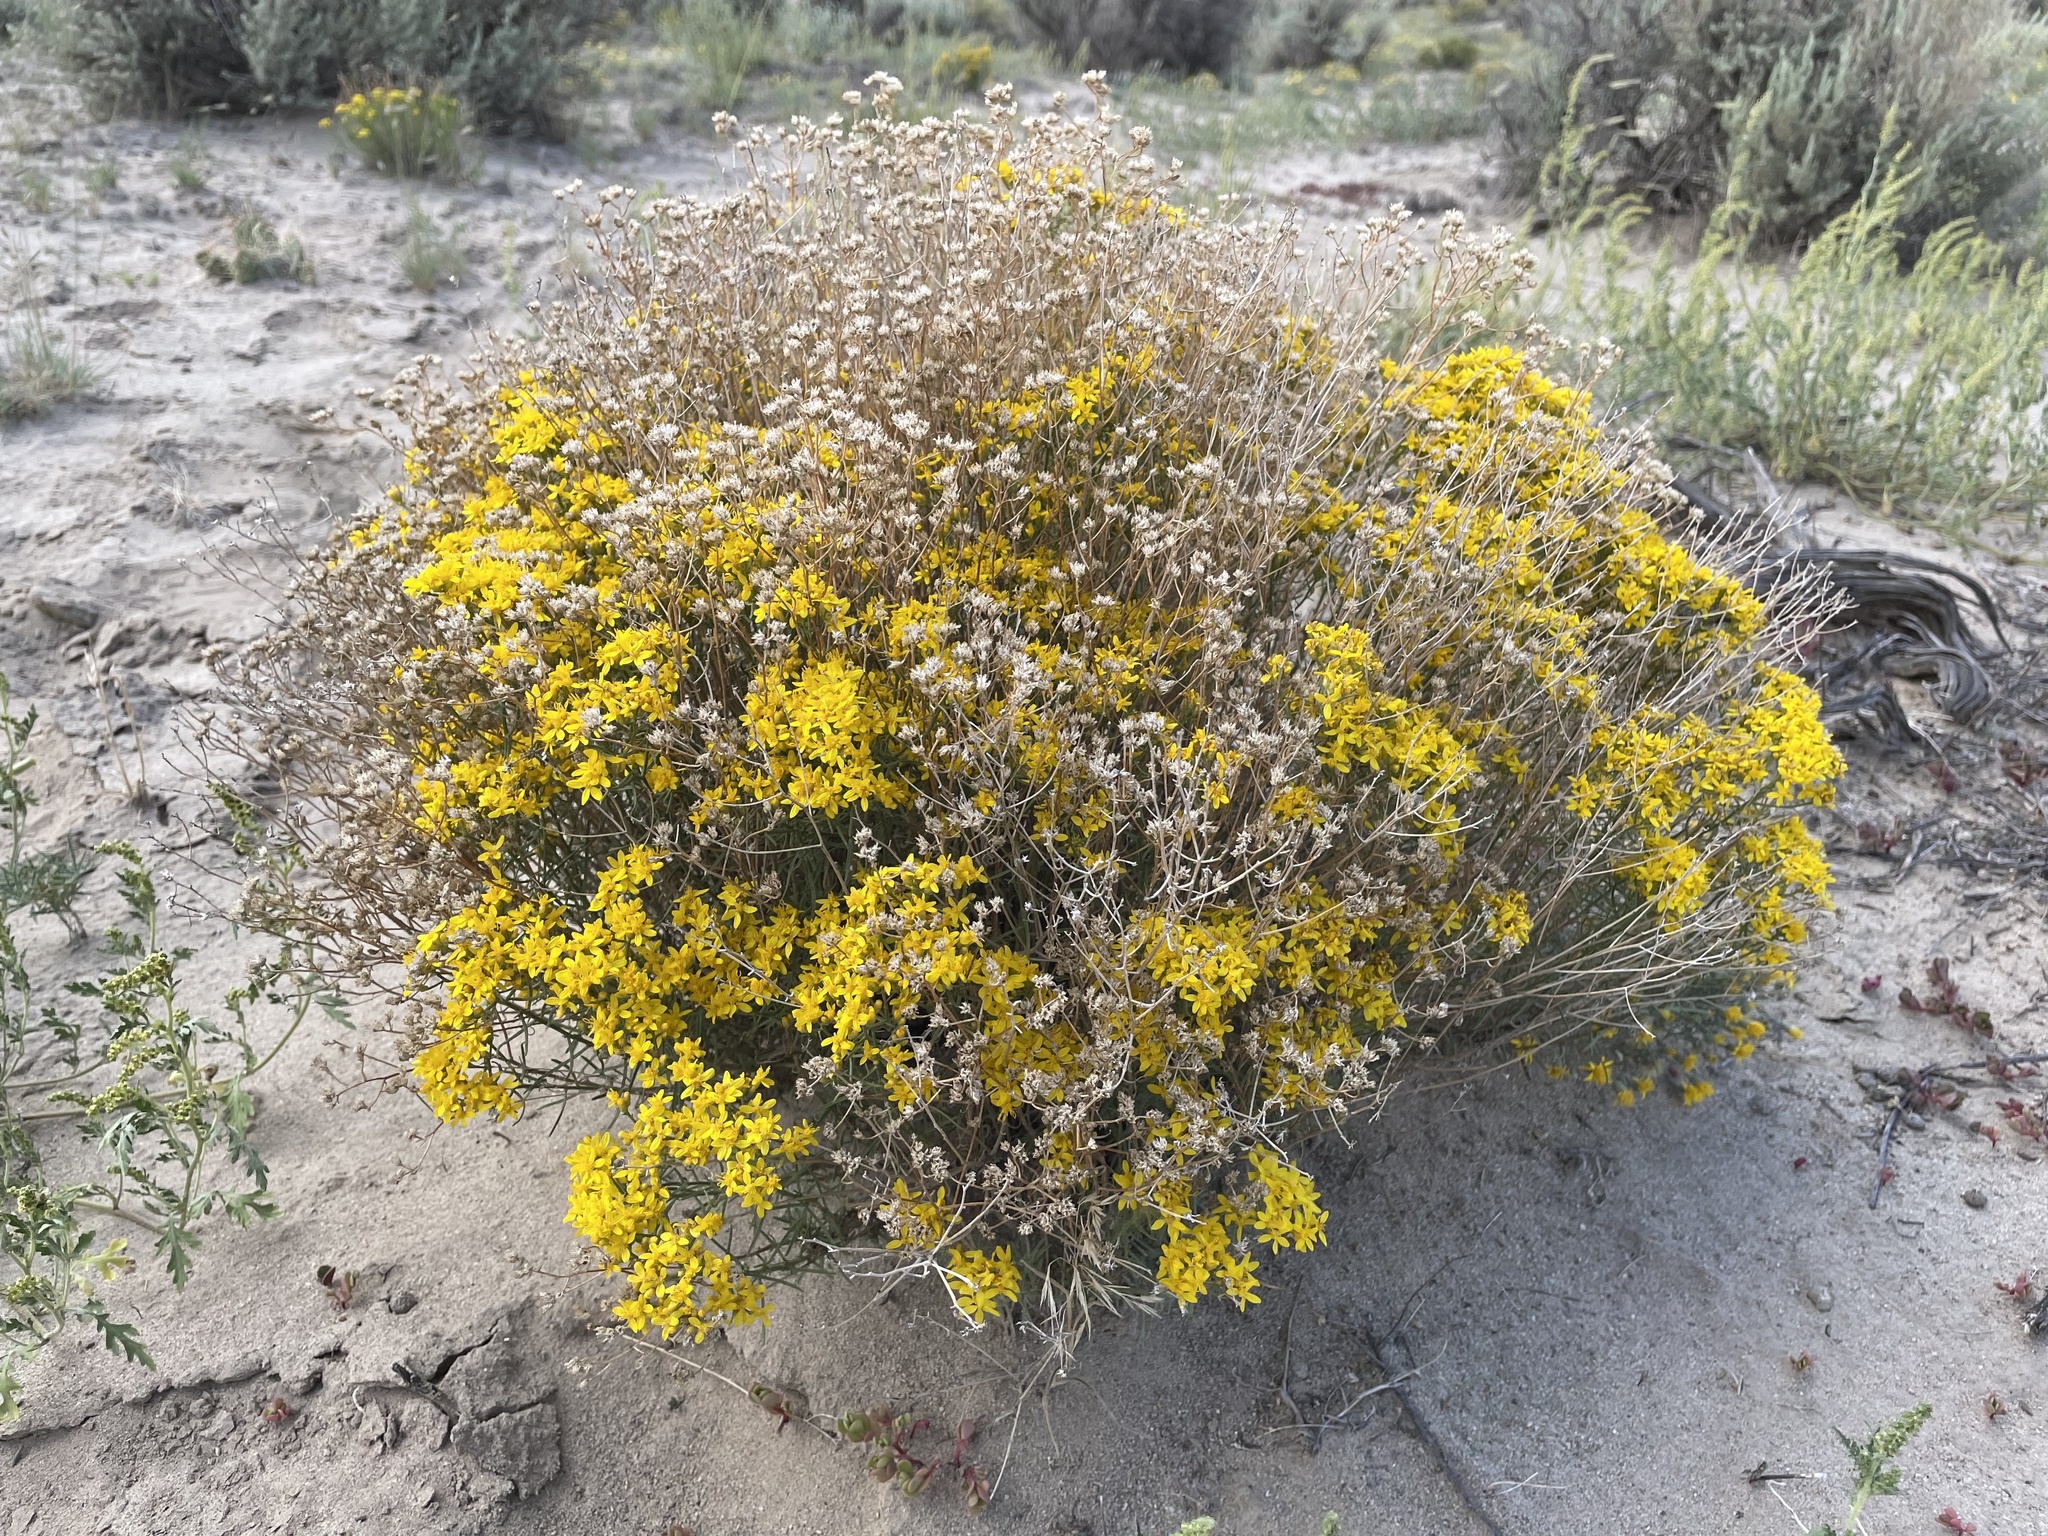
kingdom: Plantae
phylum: Tracheophyta
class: Magnoliopsida
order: Asterales
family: Asteraceae
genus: Gutierrezia
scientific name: Gutierrezia sarothrae
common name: Broom snakeweed
